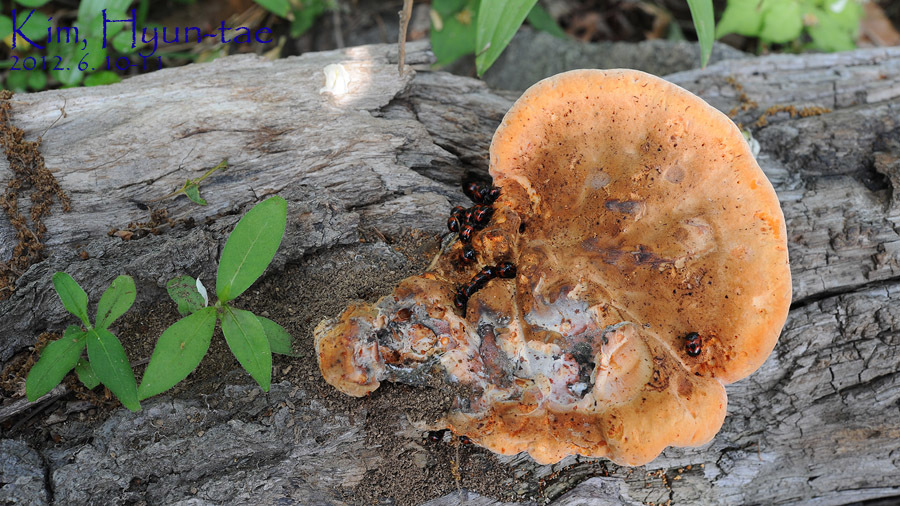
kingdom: Animalia
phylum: Arthropoda
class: Insecta
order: Coleoptera
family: Tenebrionidae
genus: Diaperis
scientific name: Diaperis lewisi
